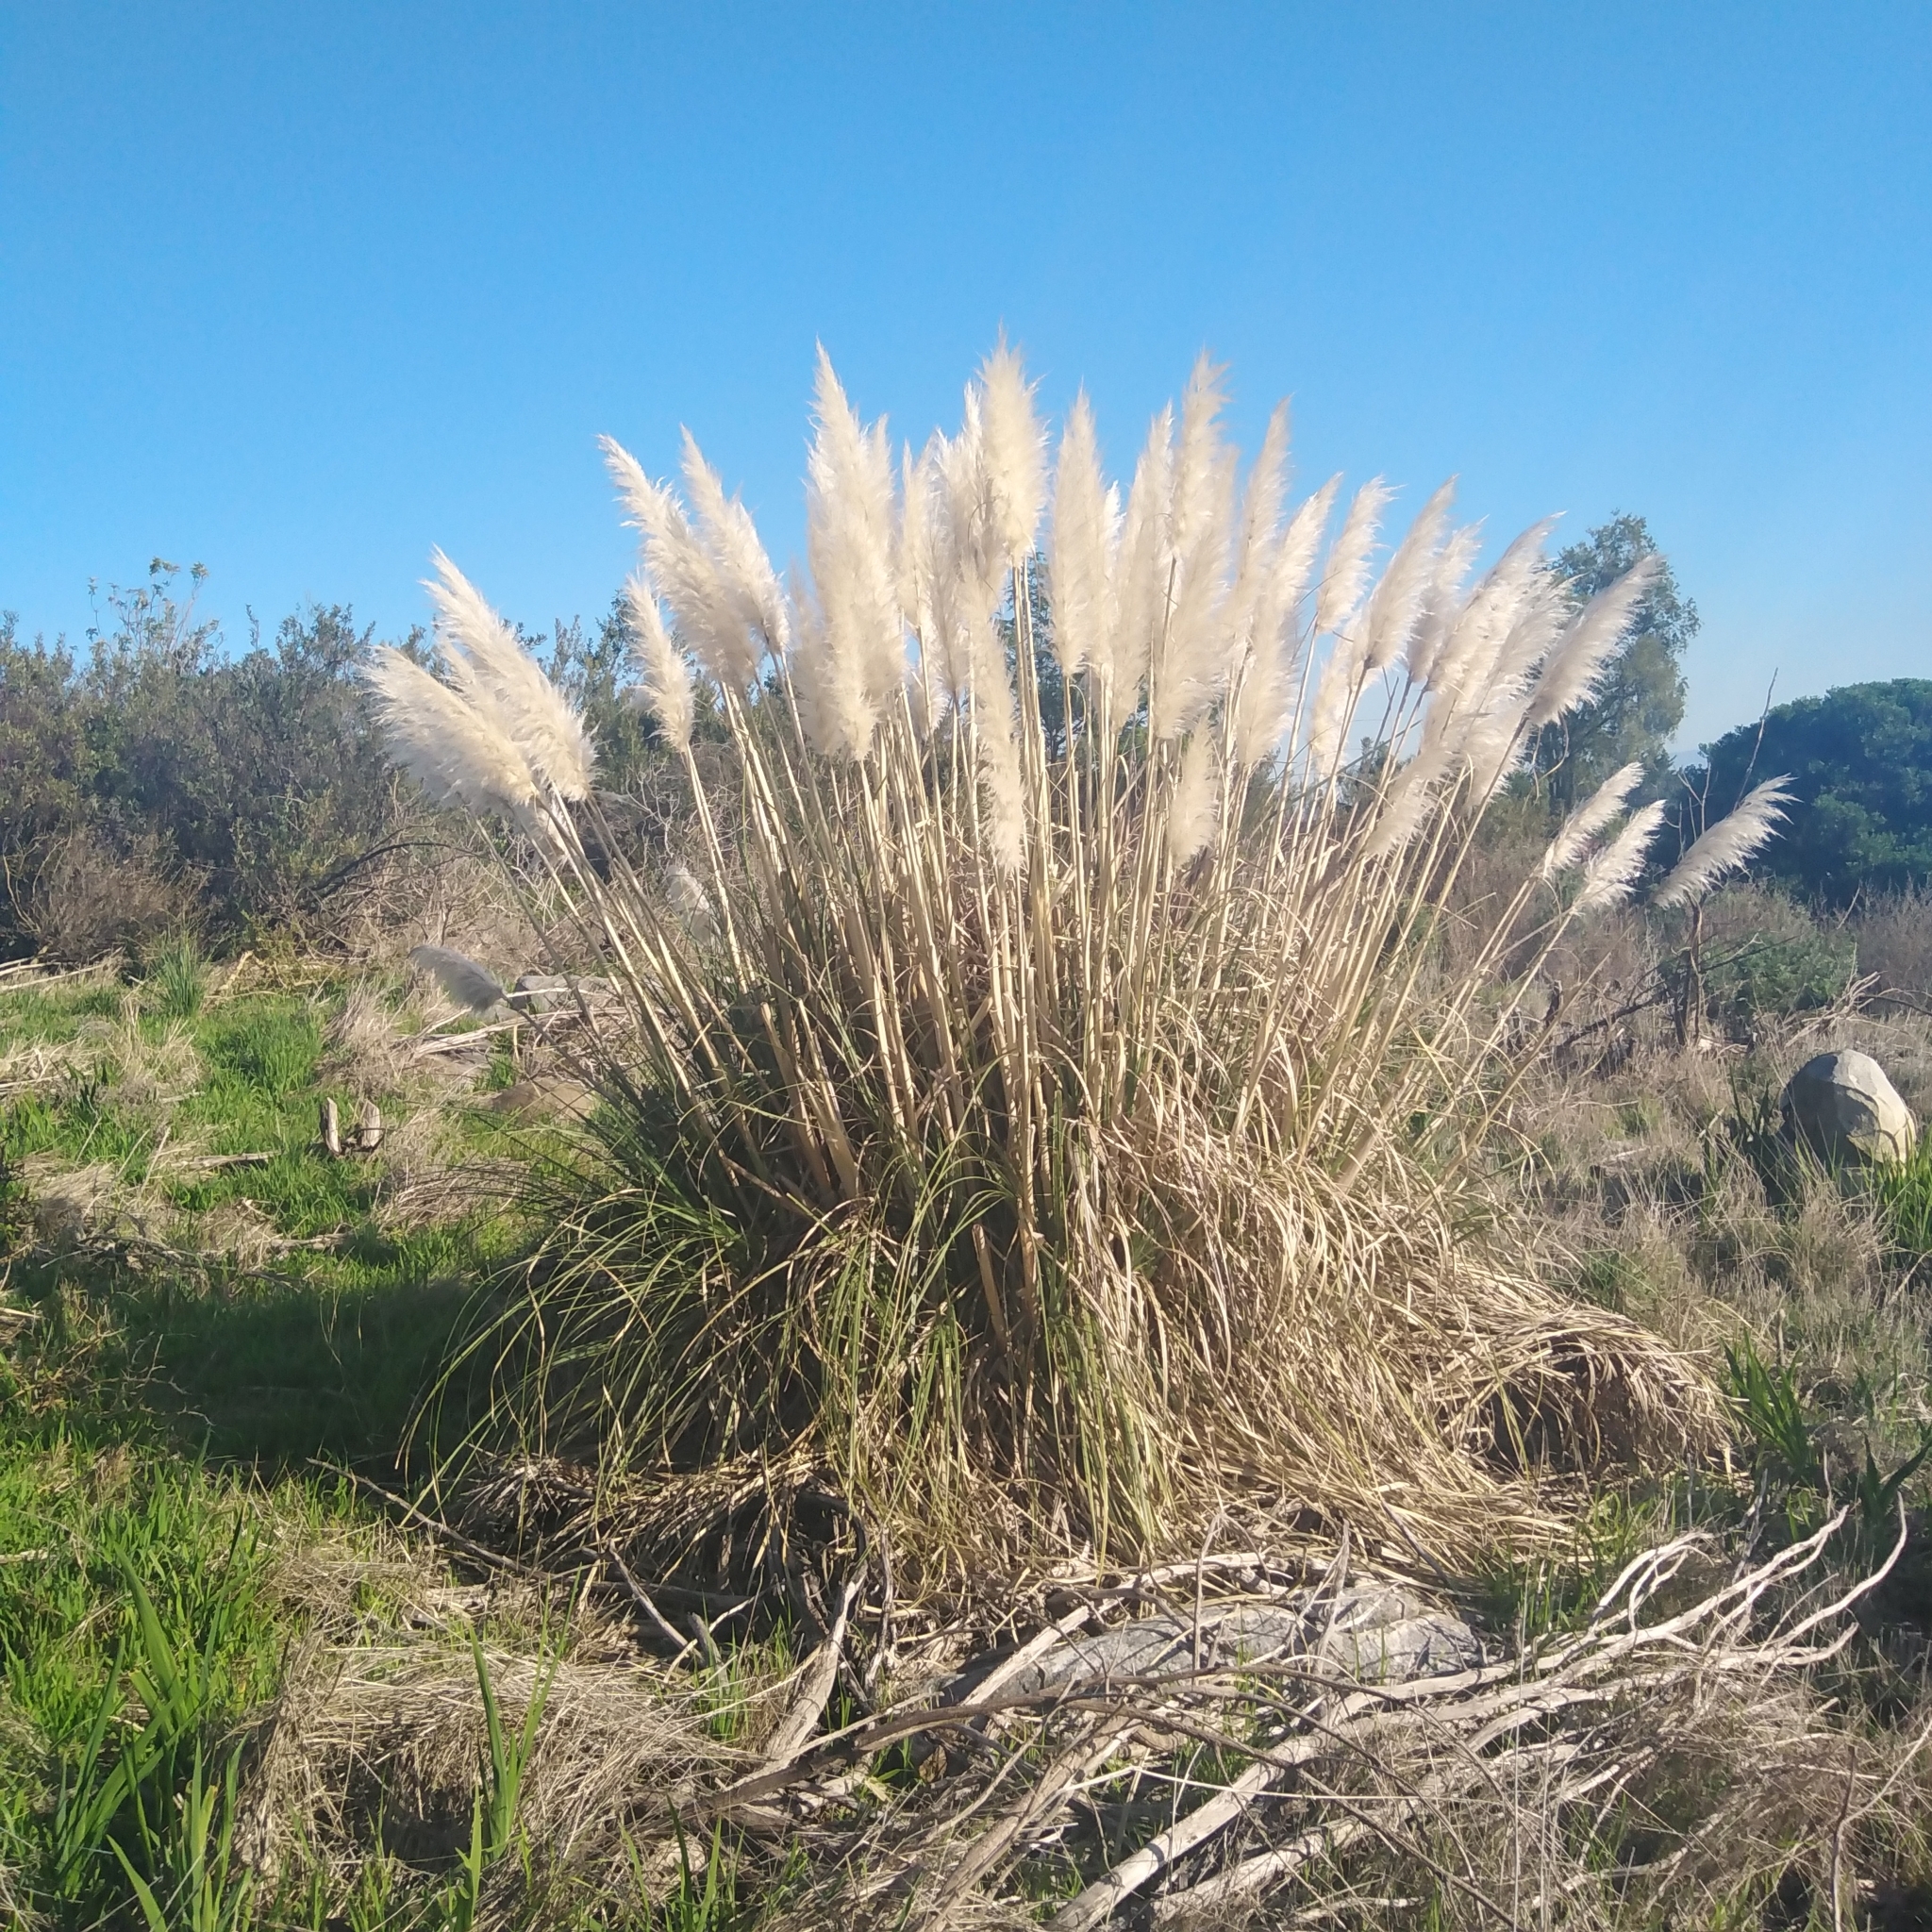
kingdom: Plantae
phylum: Tracheophyta
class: Liliopsida
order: Poales
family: Poaceae
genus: Cortaderia
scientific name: Cortaderia selloana
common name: Uruguayan pampas grass
